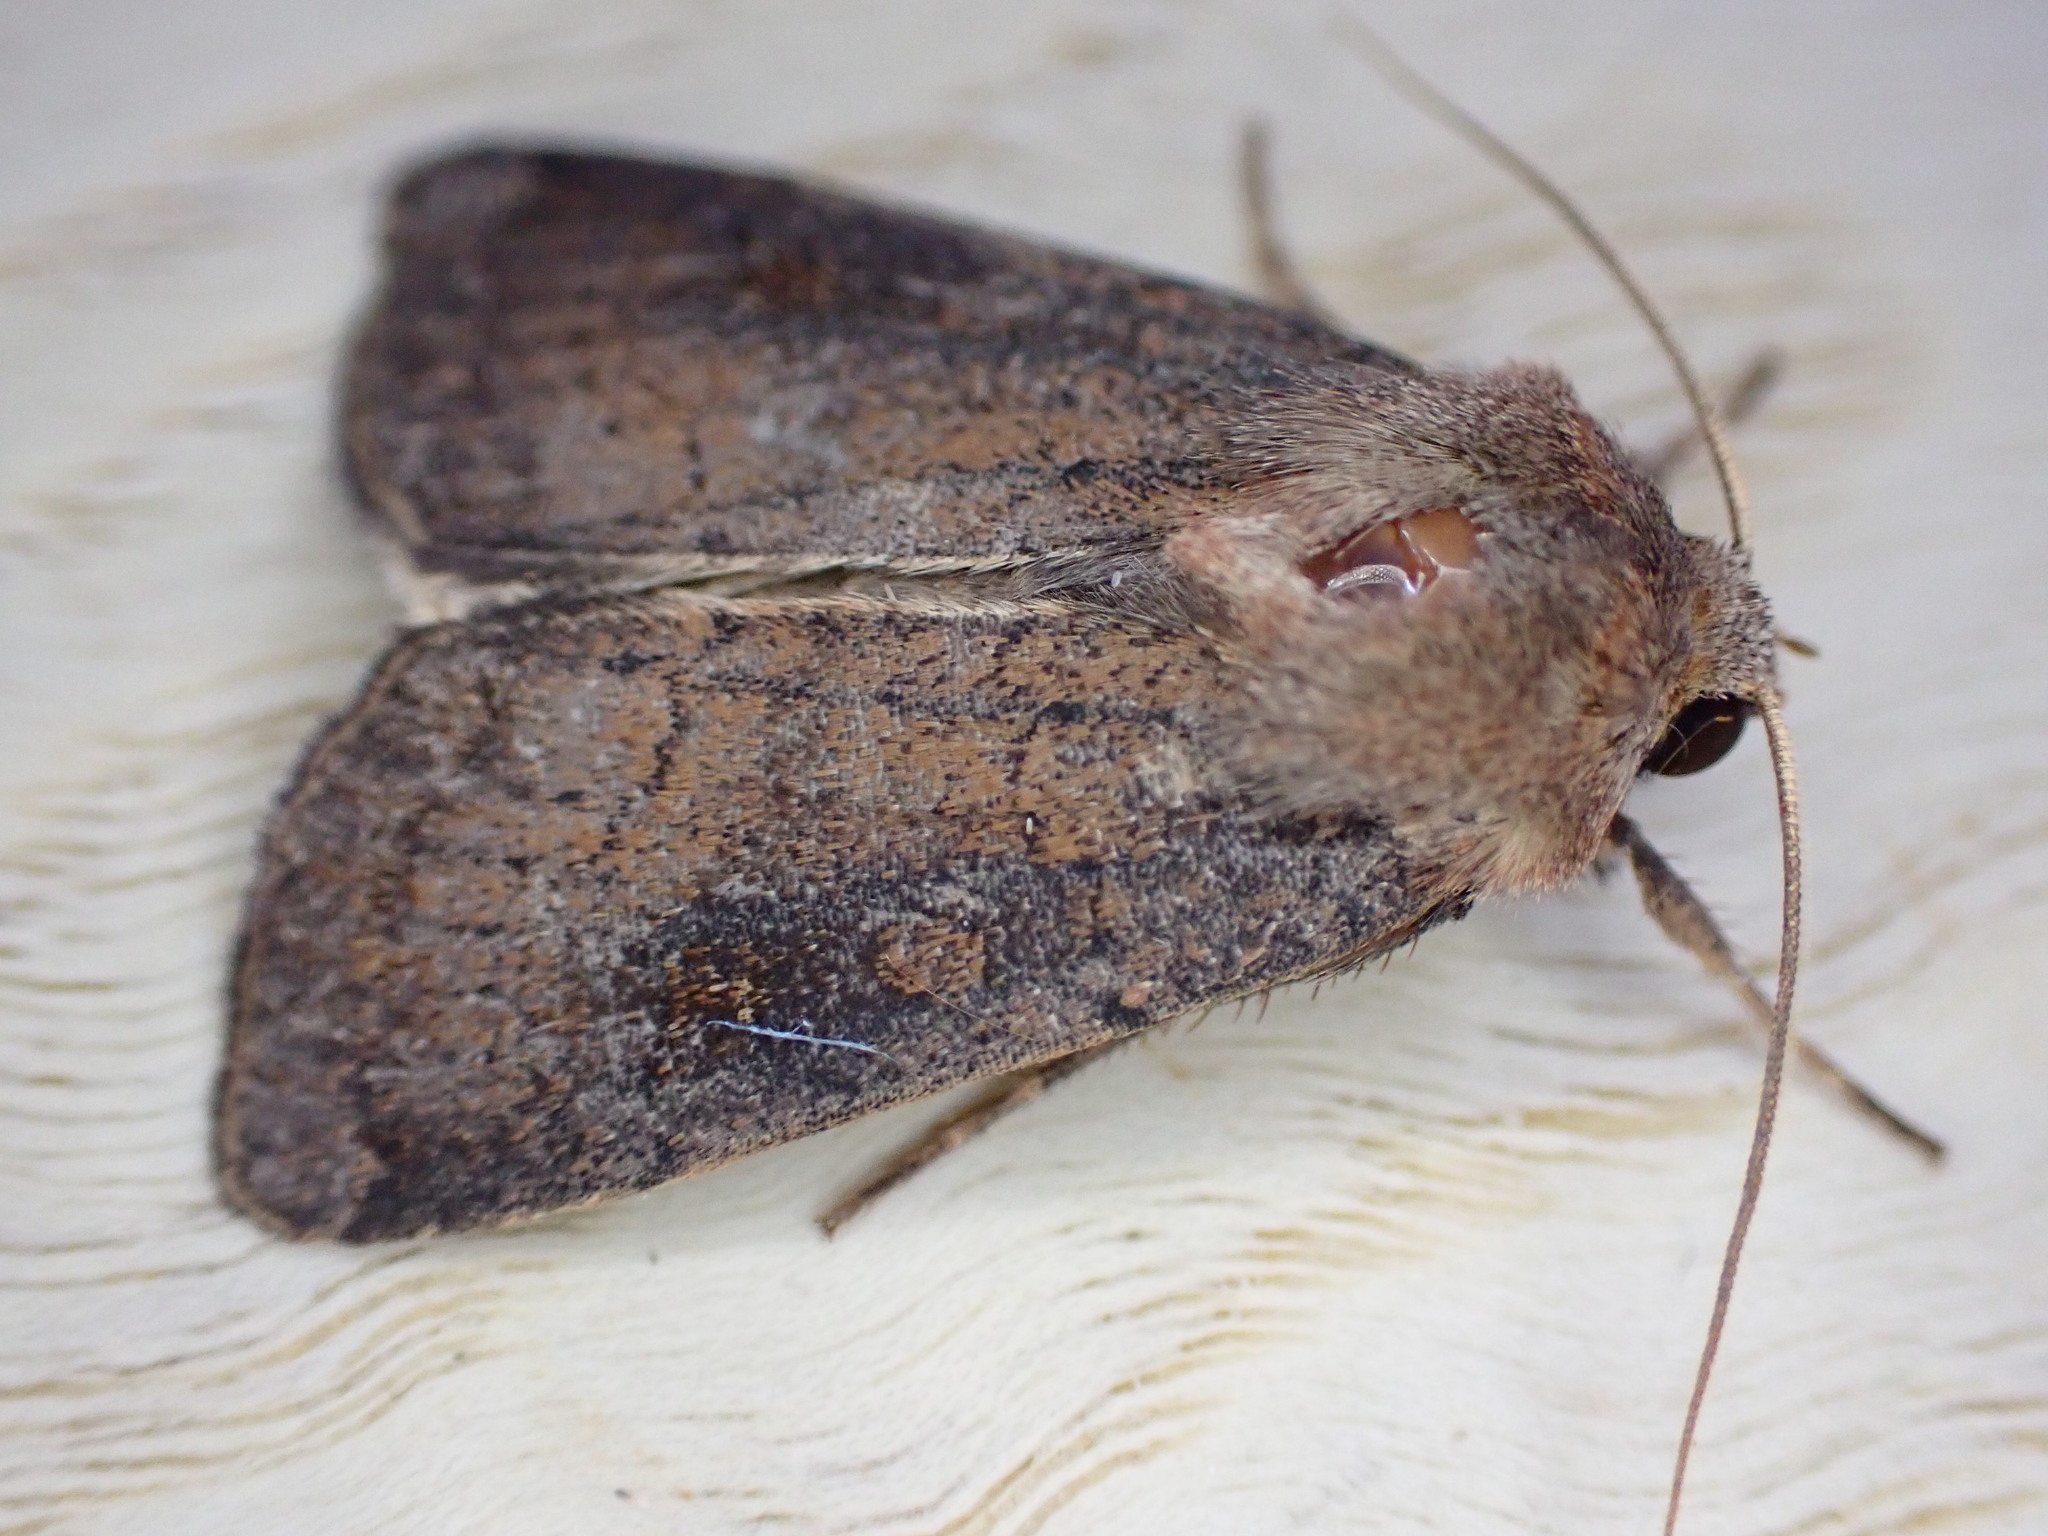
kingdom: Animalia
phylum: Arthropoda
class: Insecta
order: Lepidoptera
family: Noctuidae
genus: Xestia
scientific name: Xestia xanthographa
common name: Square-spot rustic
